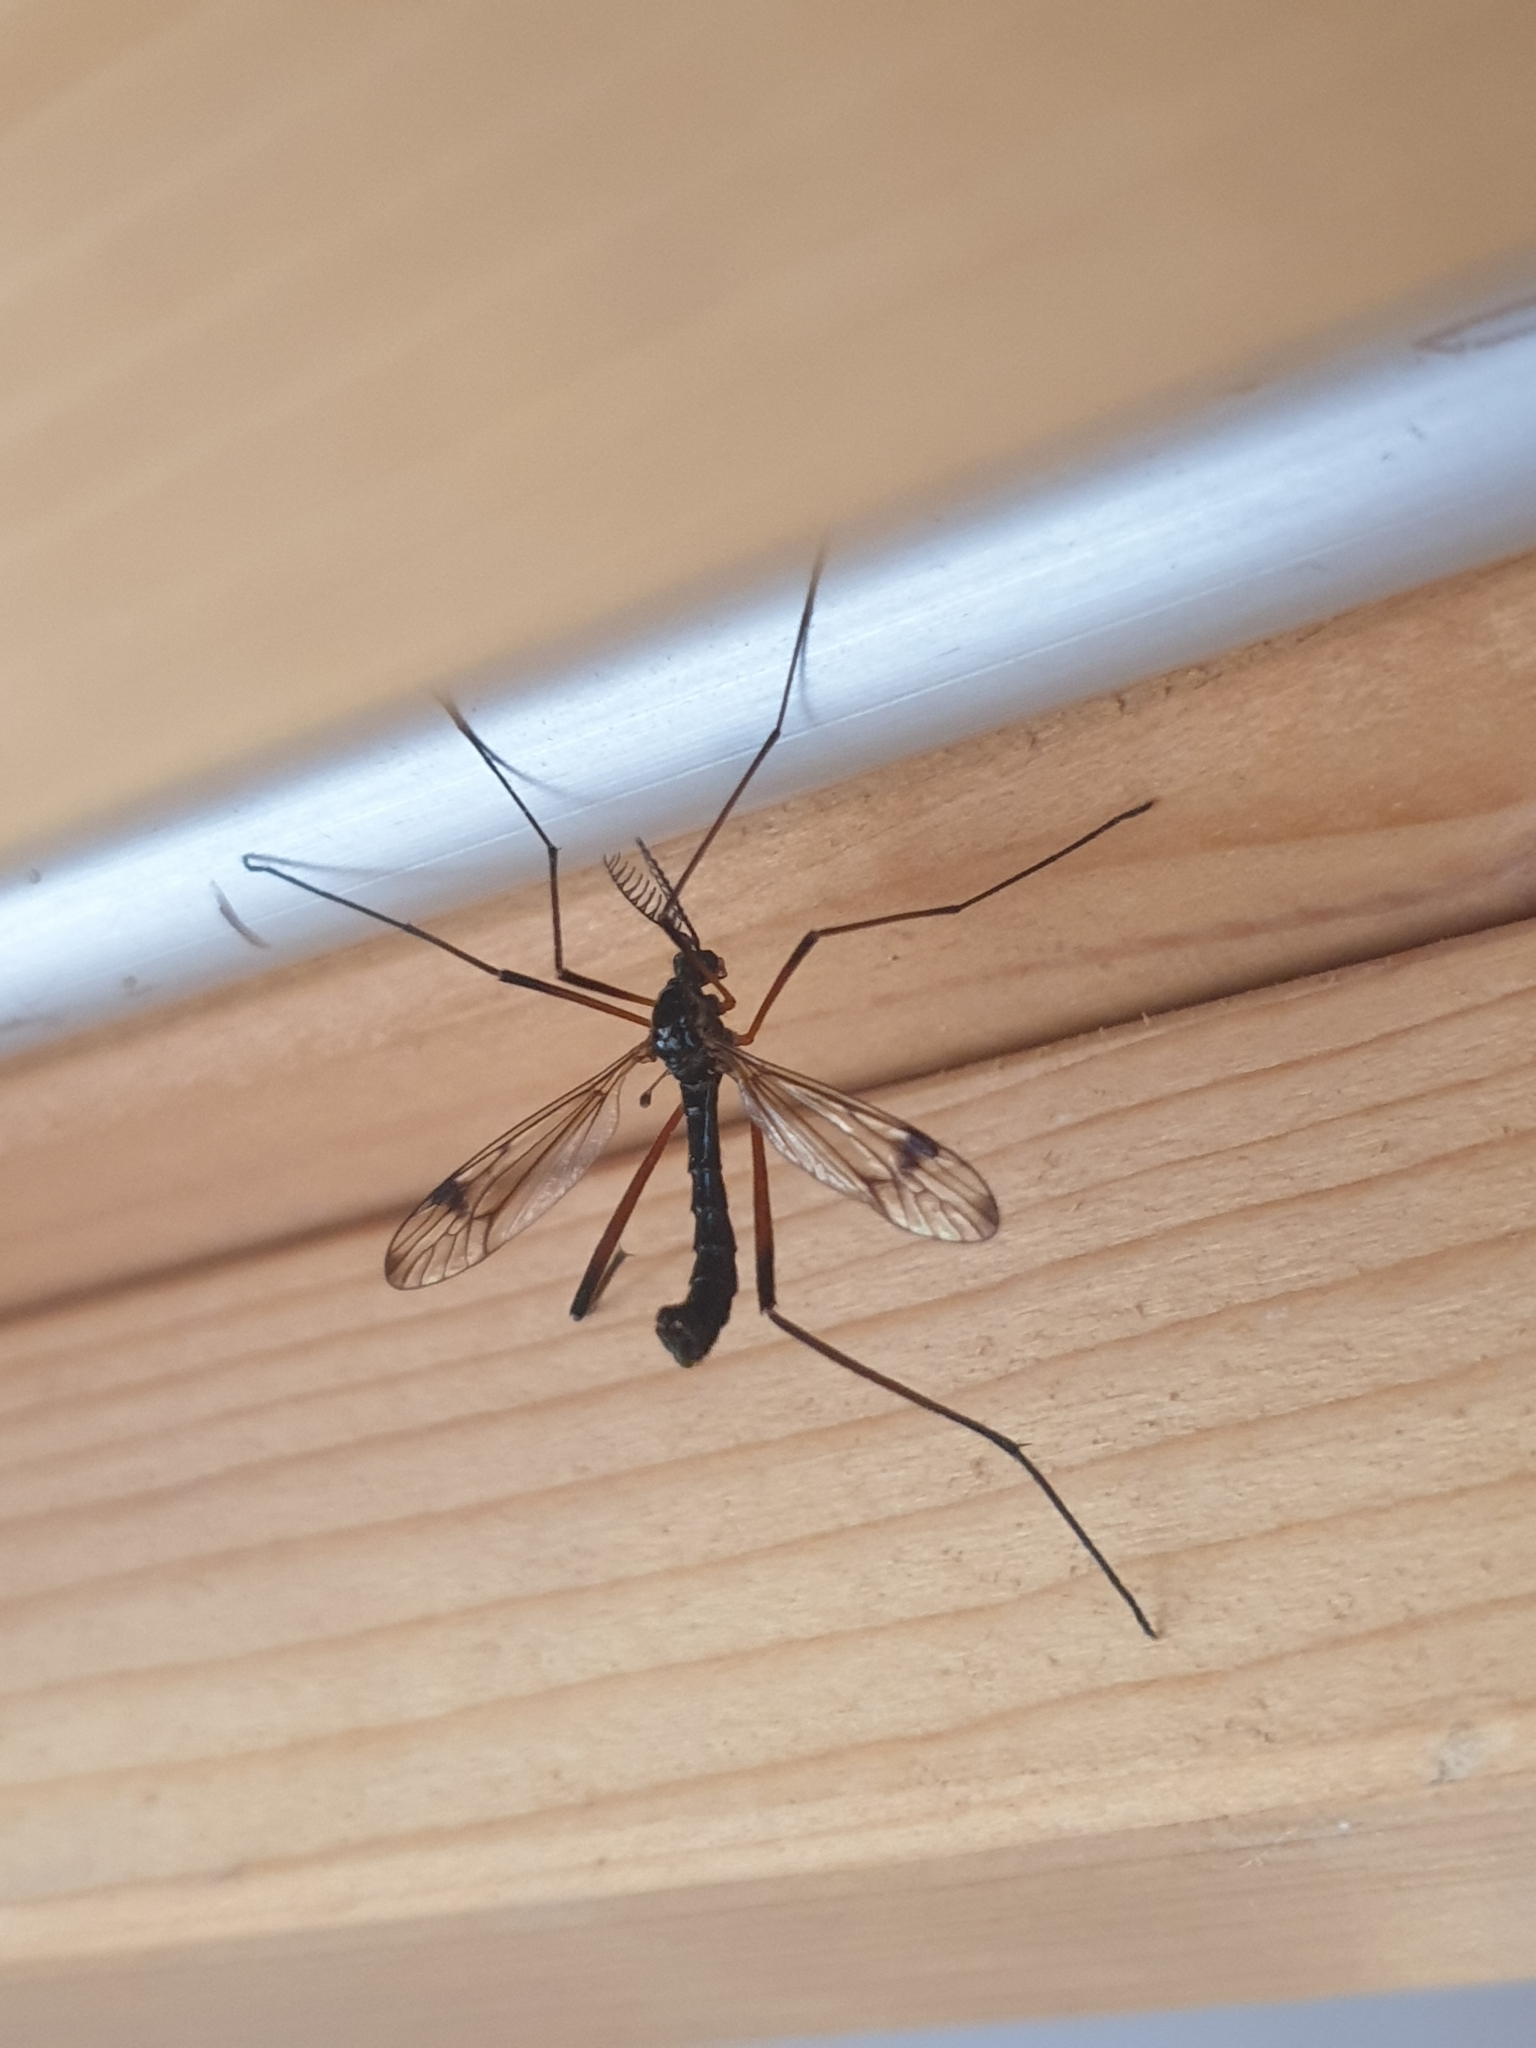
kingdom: Animalia
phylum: Arthropoda
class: Insecta
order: Diptera
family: Tipulidae
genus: Dictenidia
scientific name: Dictenidia bimaculata
